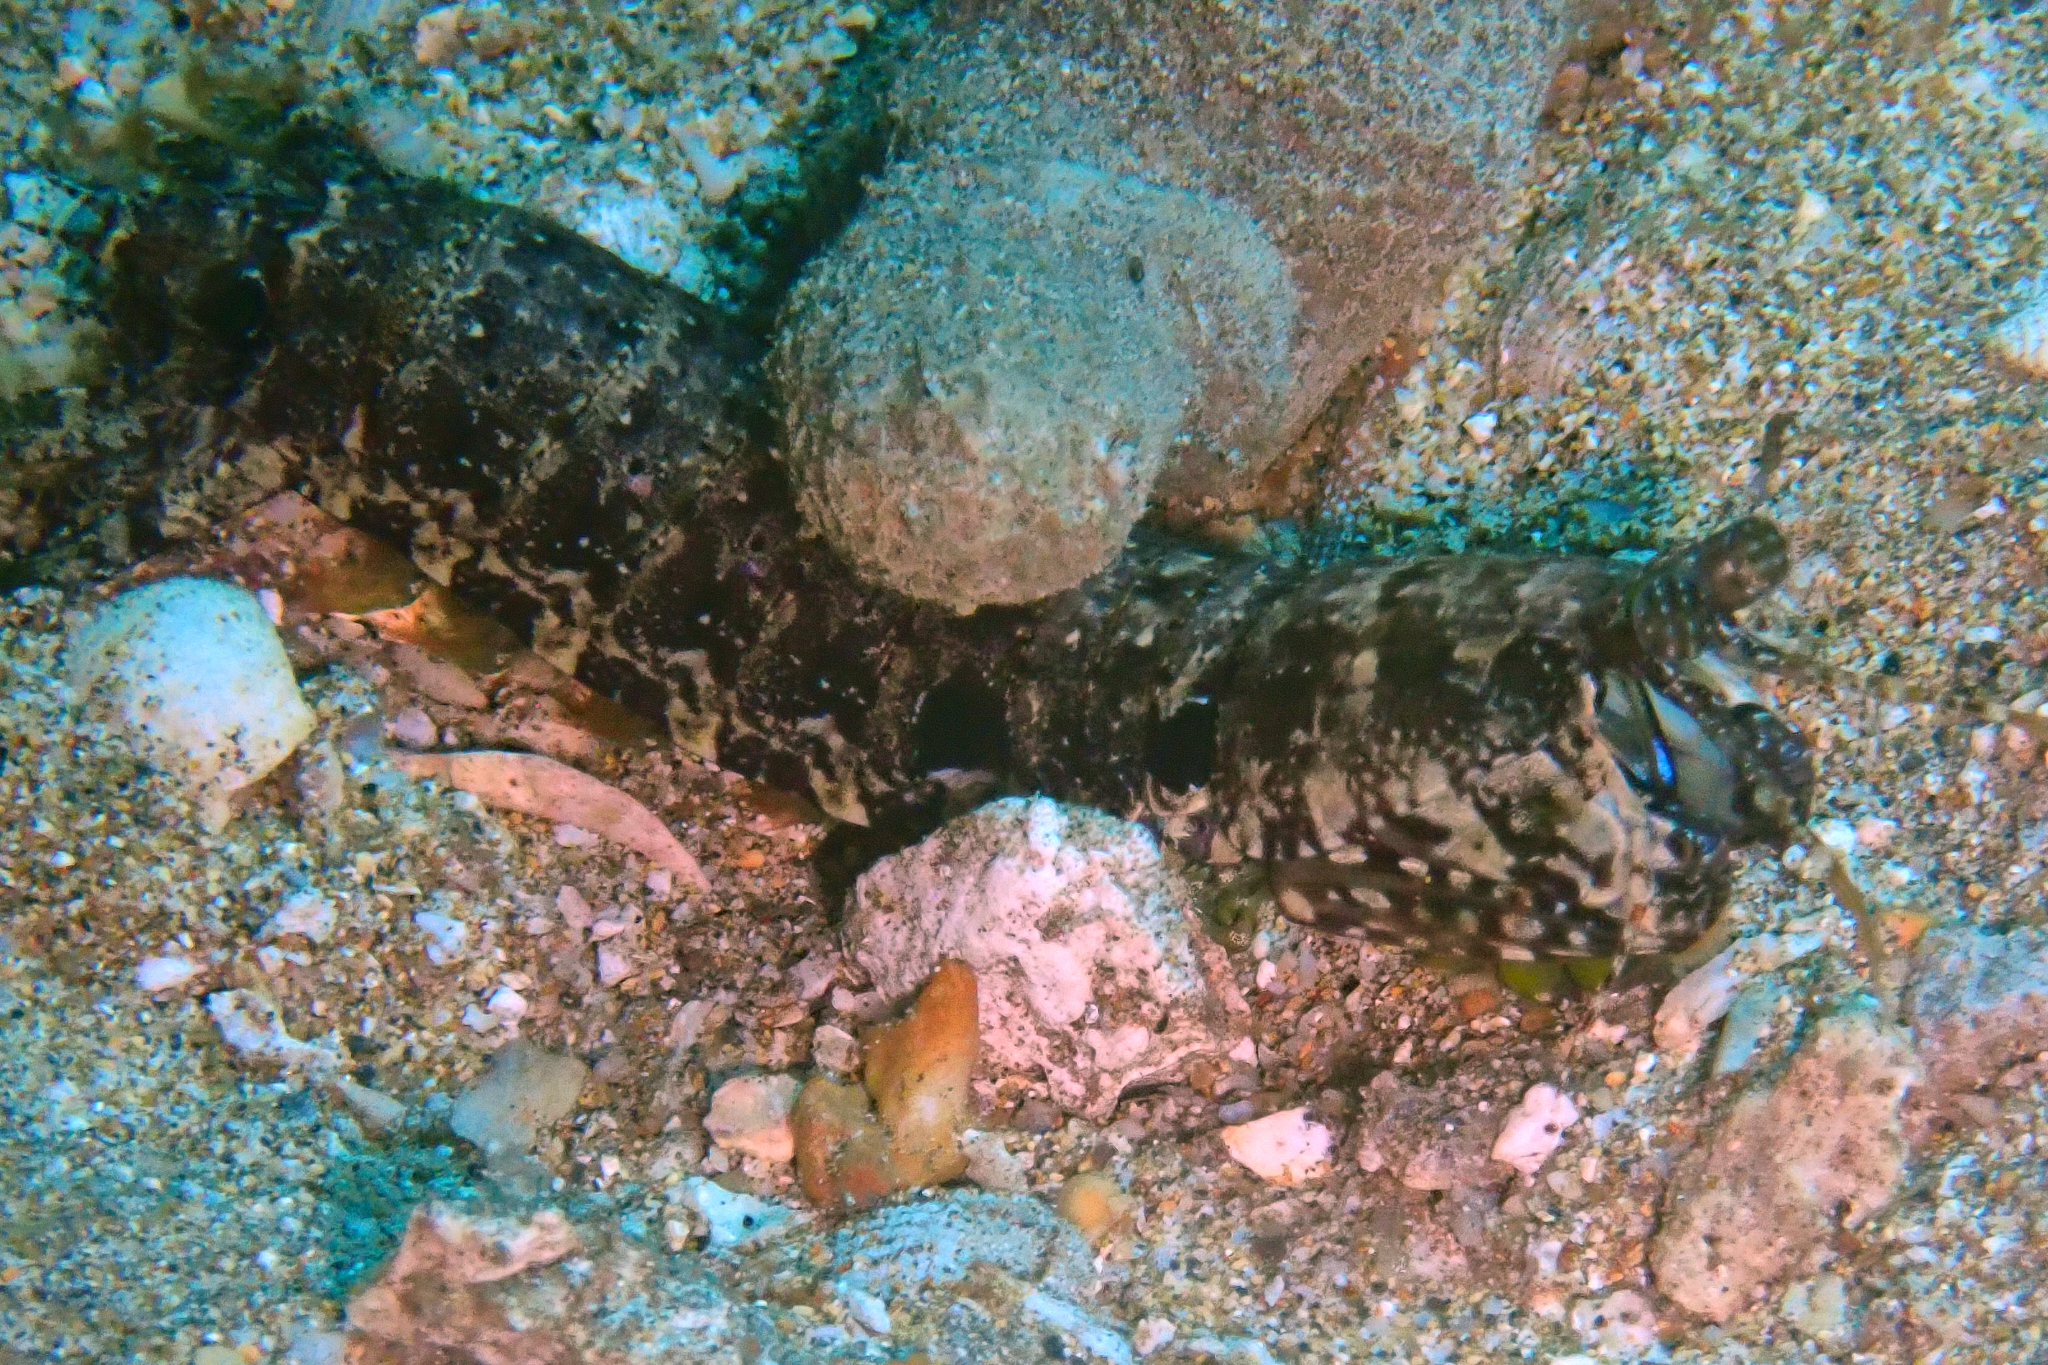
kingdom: Animalia
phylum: Arthropoda
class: Malacostraca
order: Stomatopoda
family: Pseudosquillidae
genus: Pseudosquilla
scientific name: Pseudosquilla ciliata
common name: Ciliated false squilla
